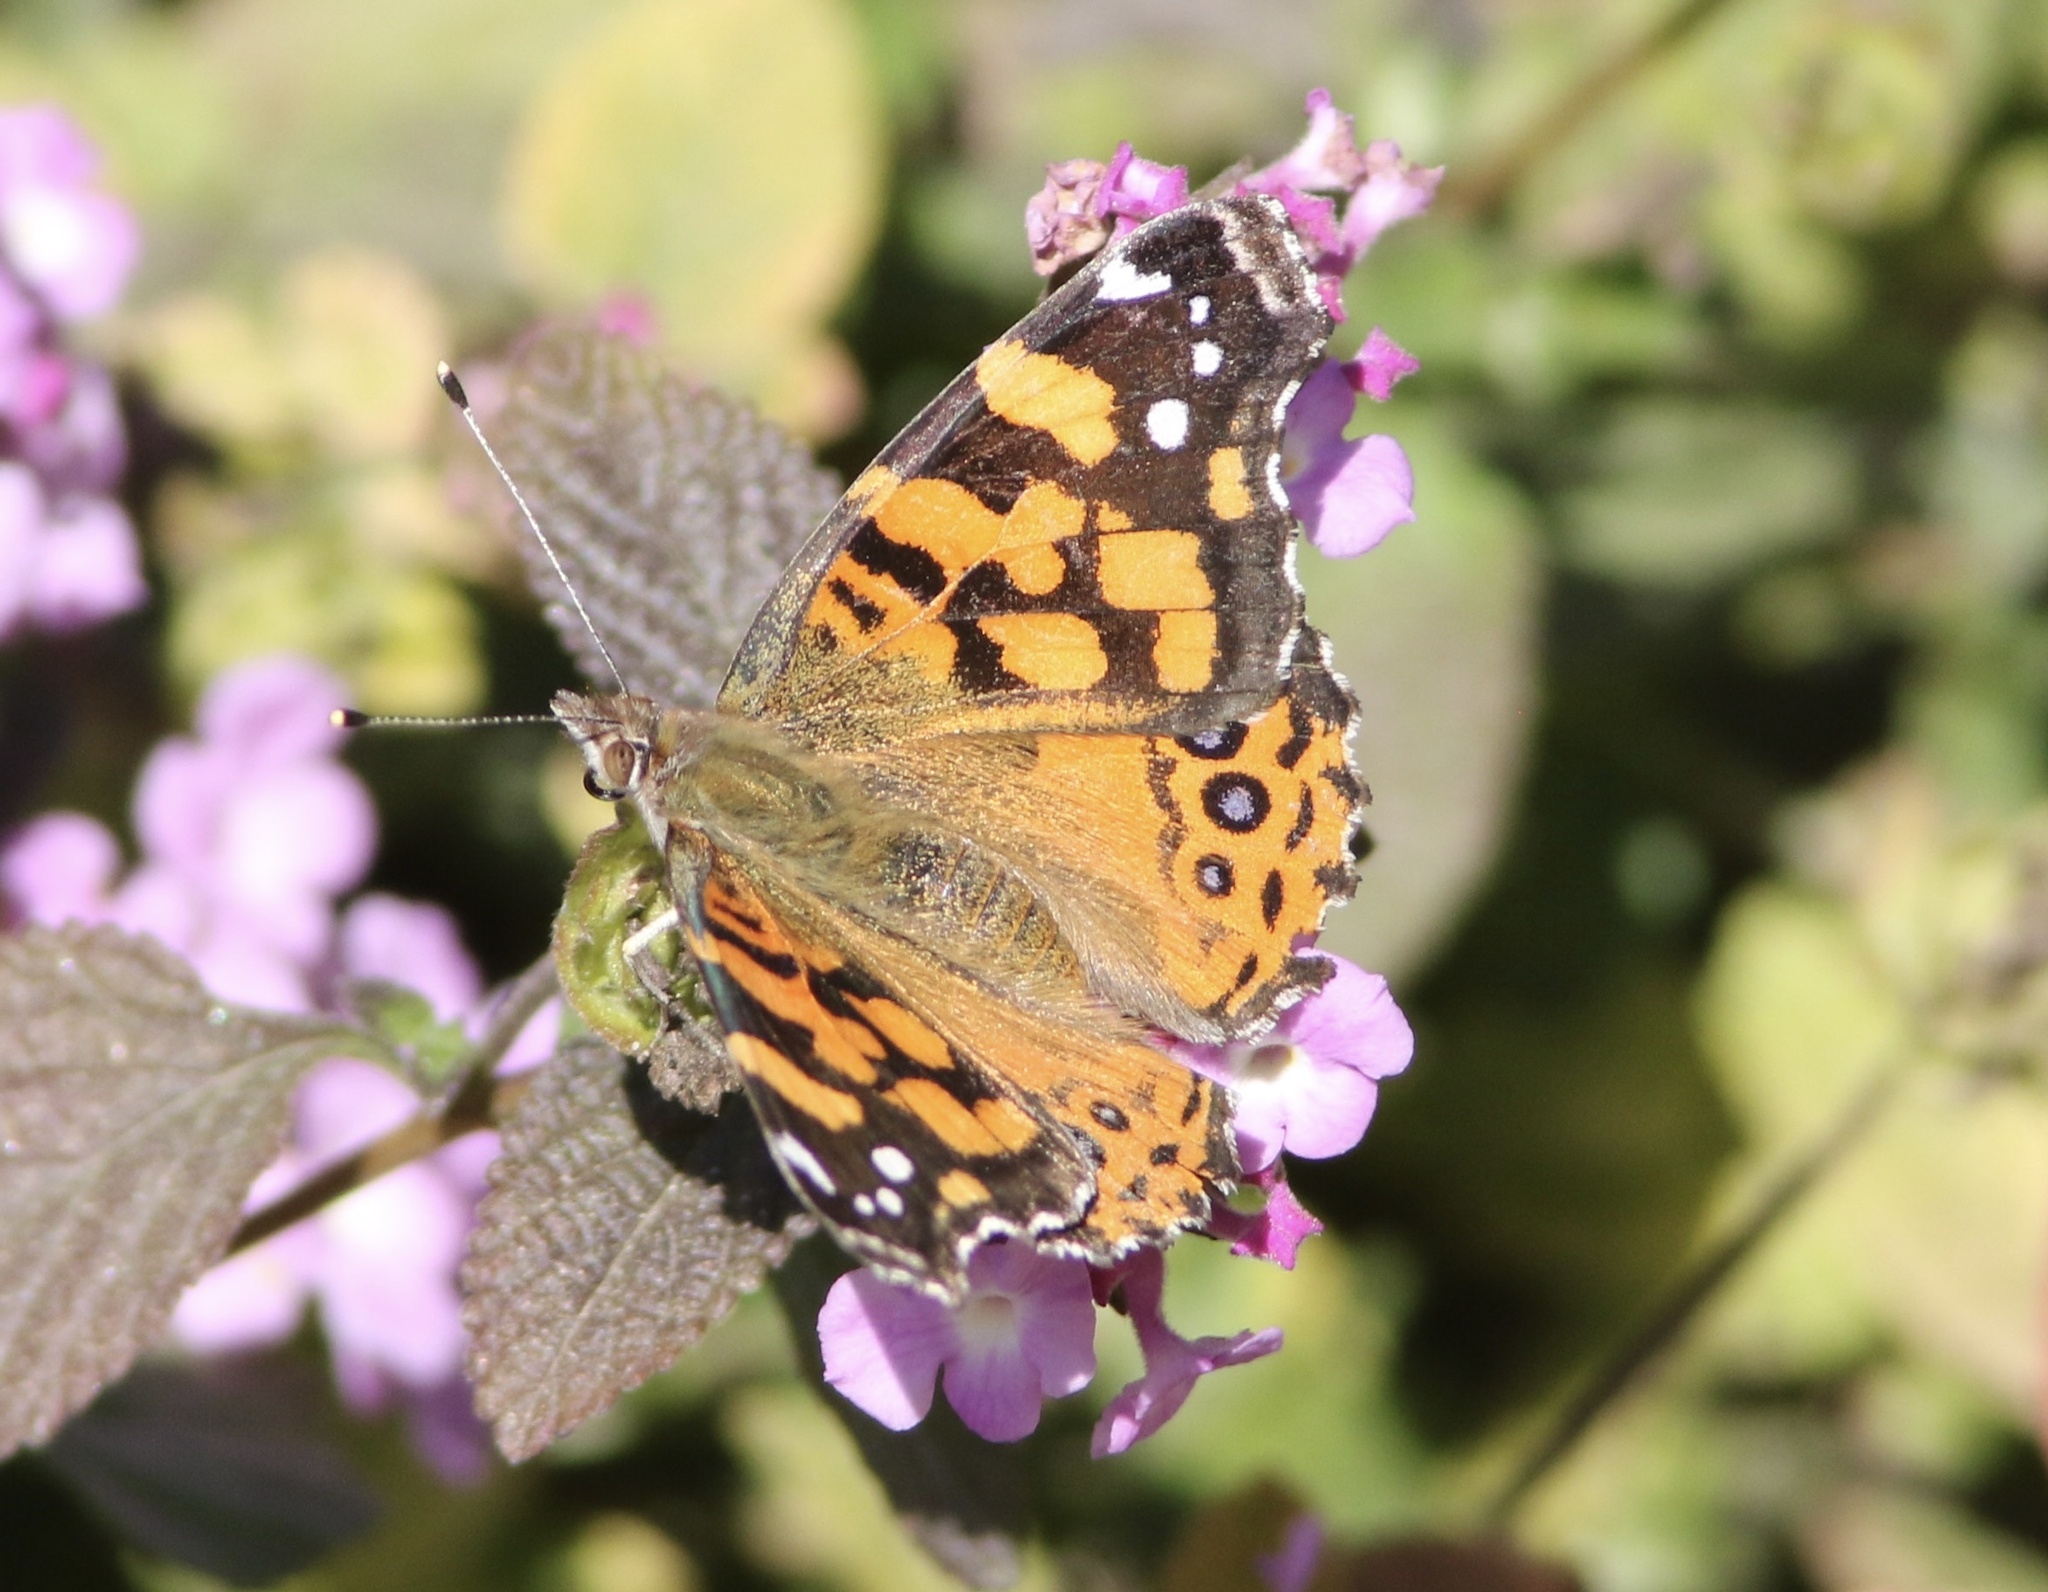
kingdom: Animalia
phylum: Arthropoda
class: Insecta
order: Lepidoptera
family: Nymphalidae
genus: Vanessa
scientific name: Vanessa annabella
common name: West coast lady
